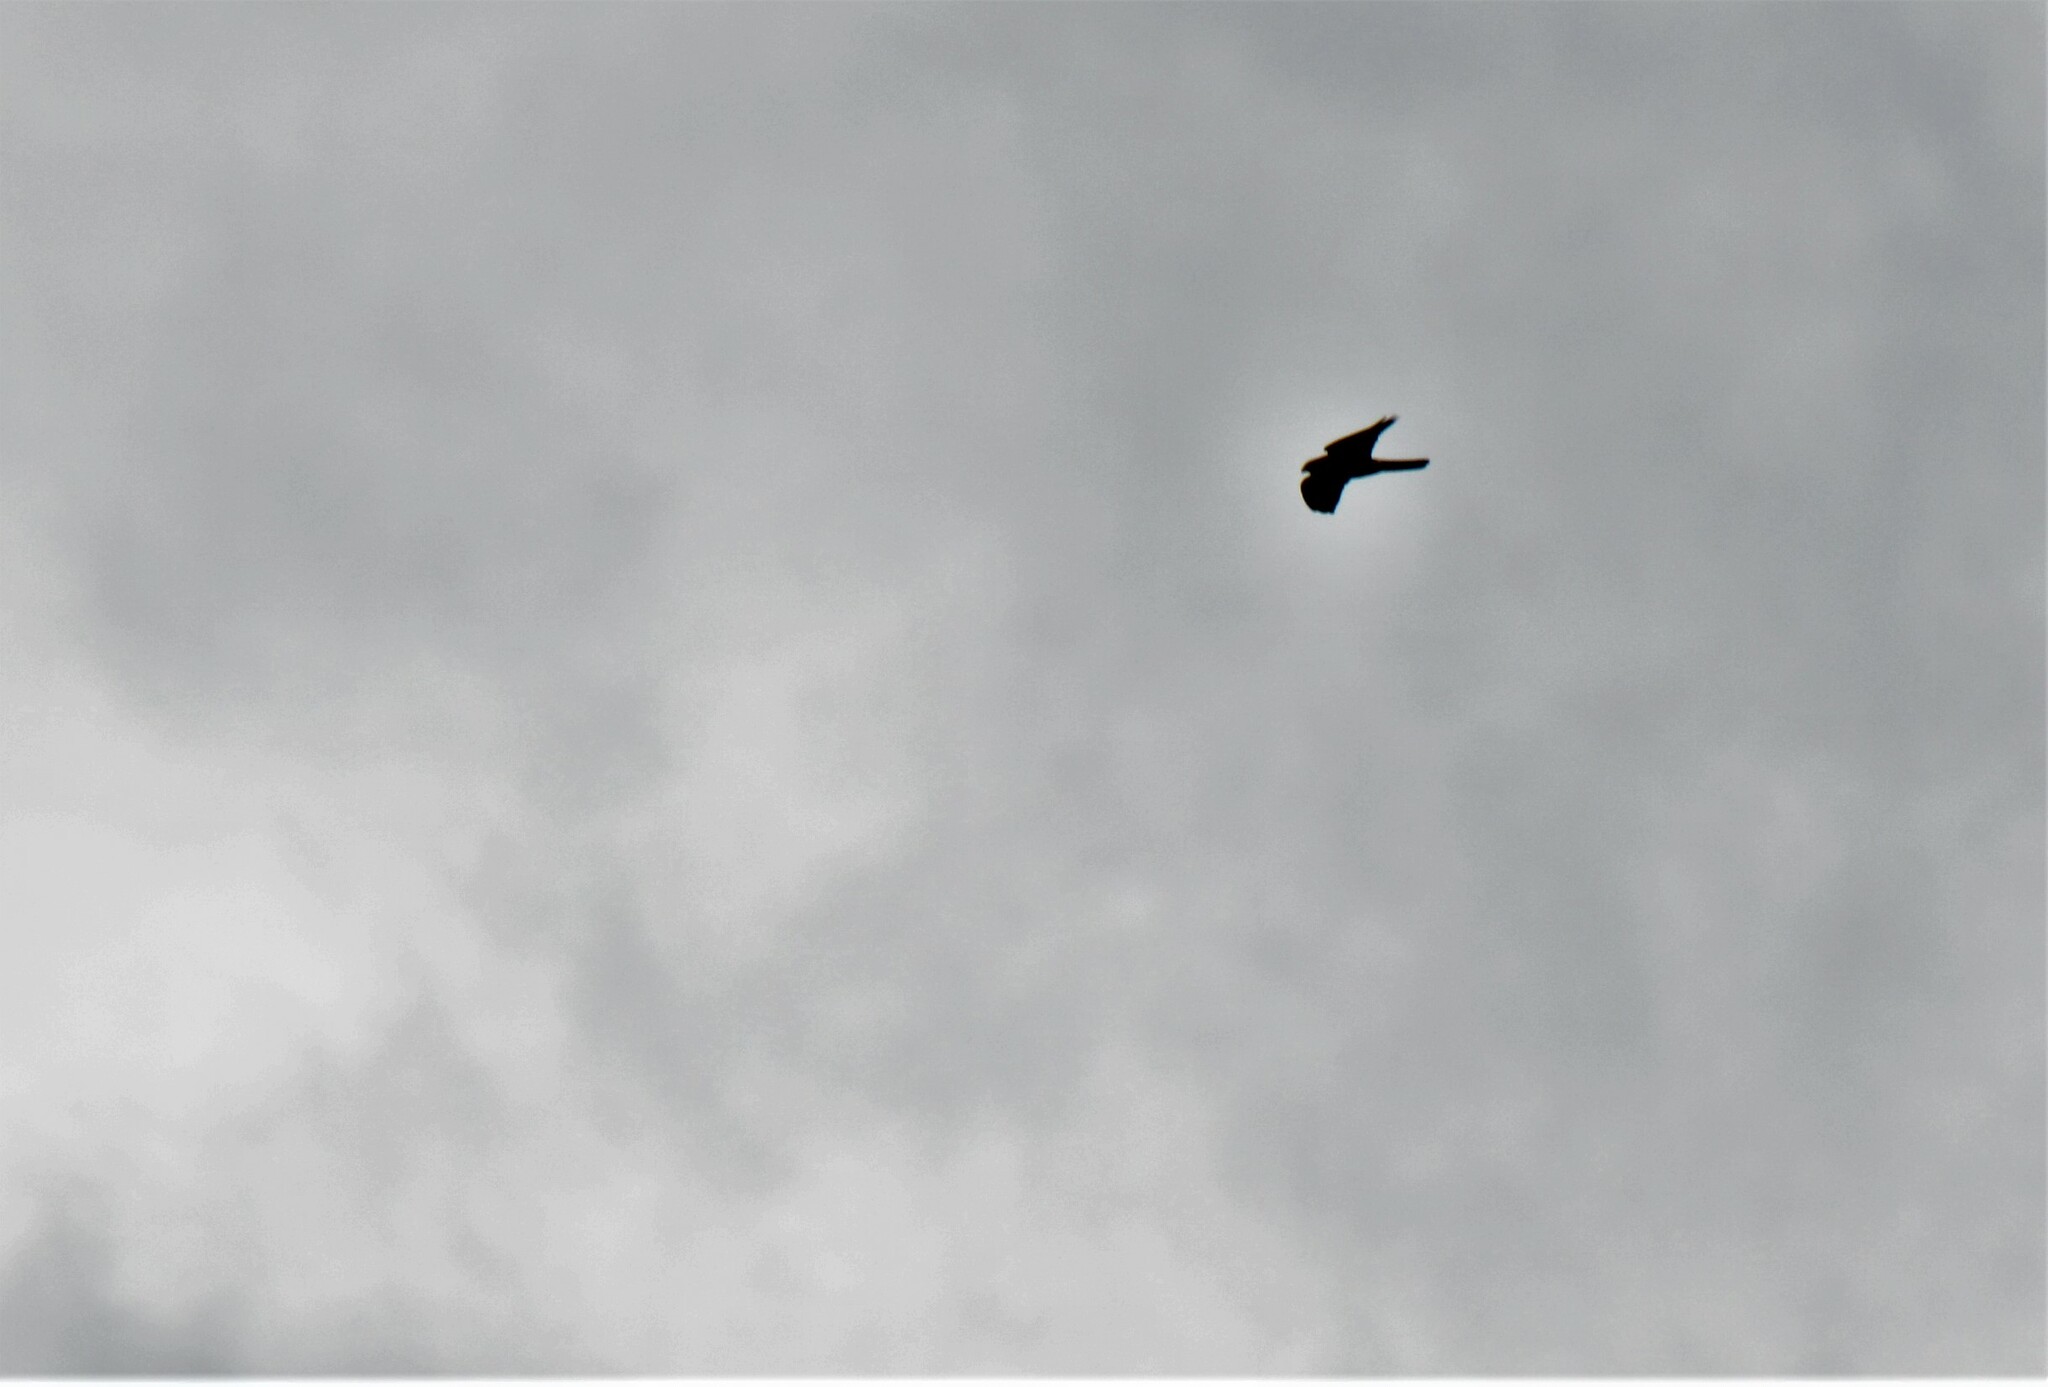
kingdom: Animalia
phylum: Chordata
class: Aves
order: Falconiformes
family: Falconidae
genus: Falco
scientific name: Falco novaeseelandiae
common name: New zealand falcon
